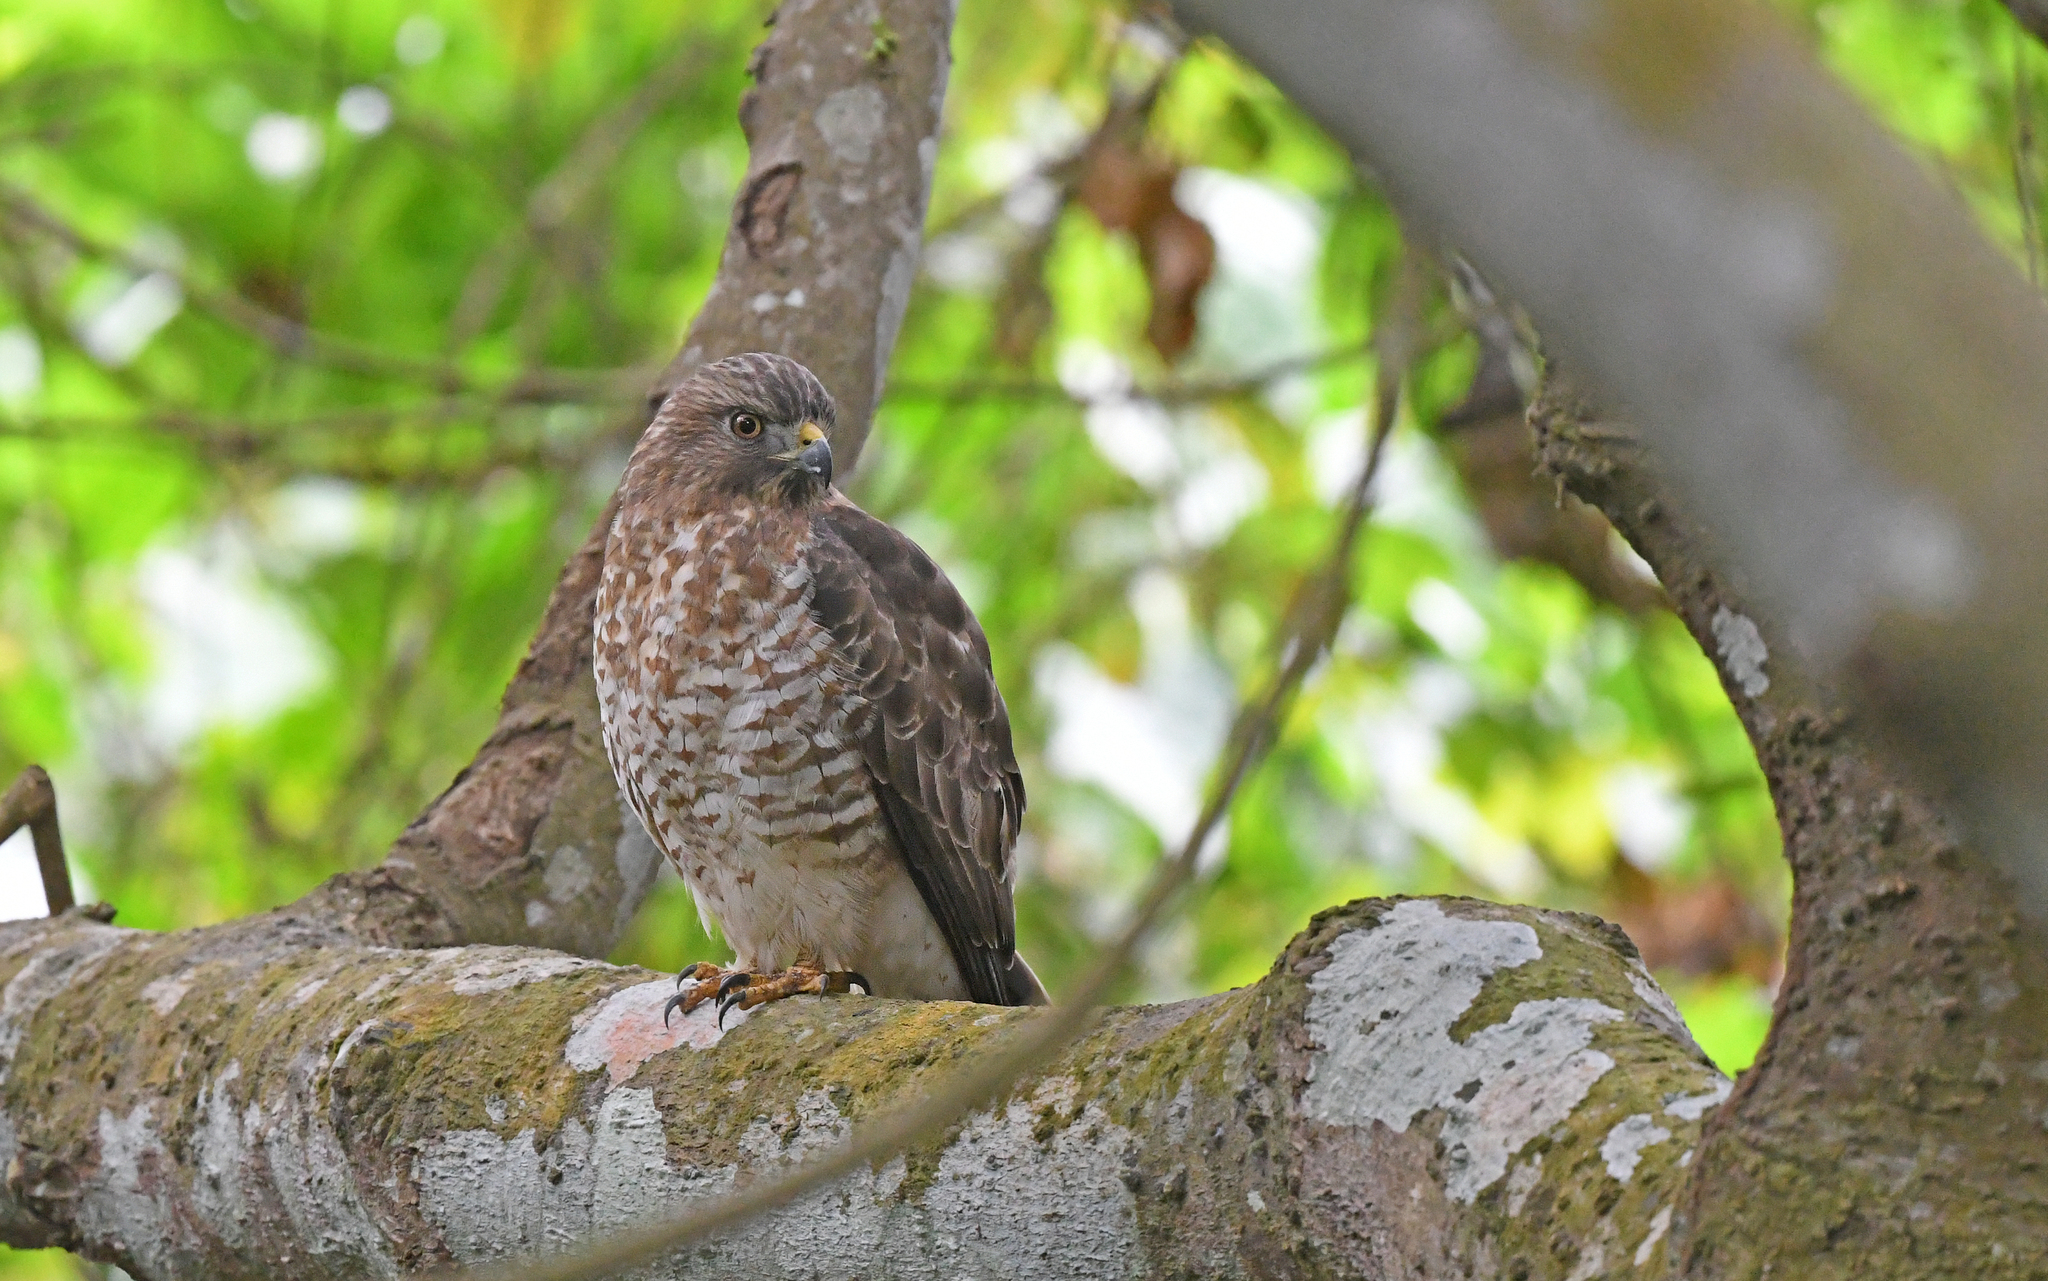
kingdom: Animalia
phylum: Chordata
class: Aves
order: Accipitriformes
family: Accipitridae
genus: Buteo
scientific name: Buteo platypterus
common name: Broad-winged hawk
